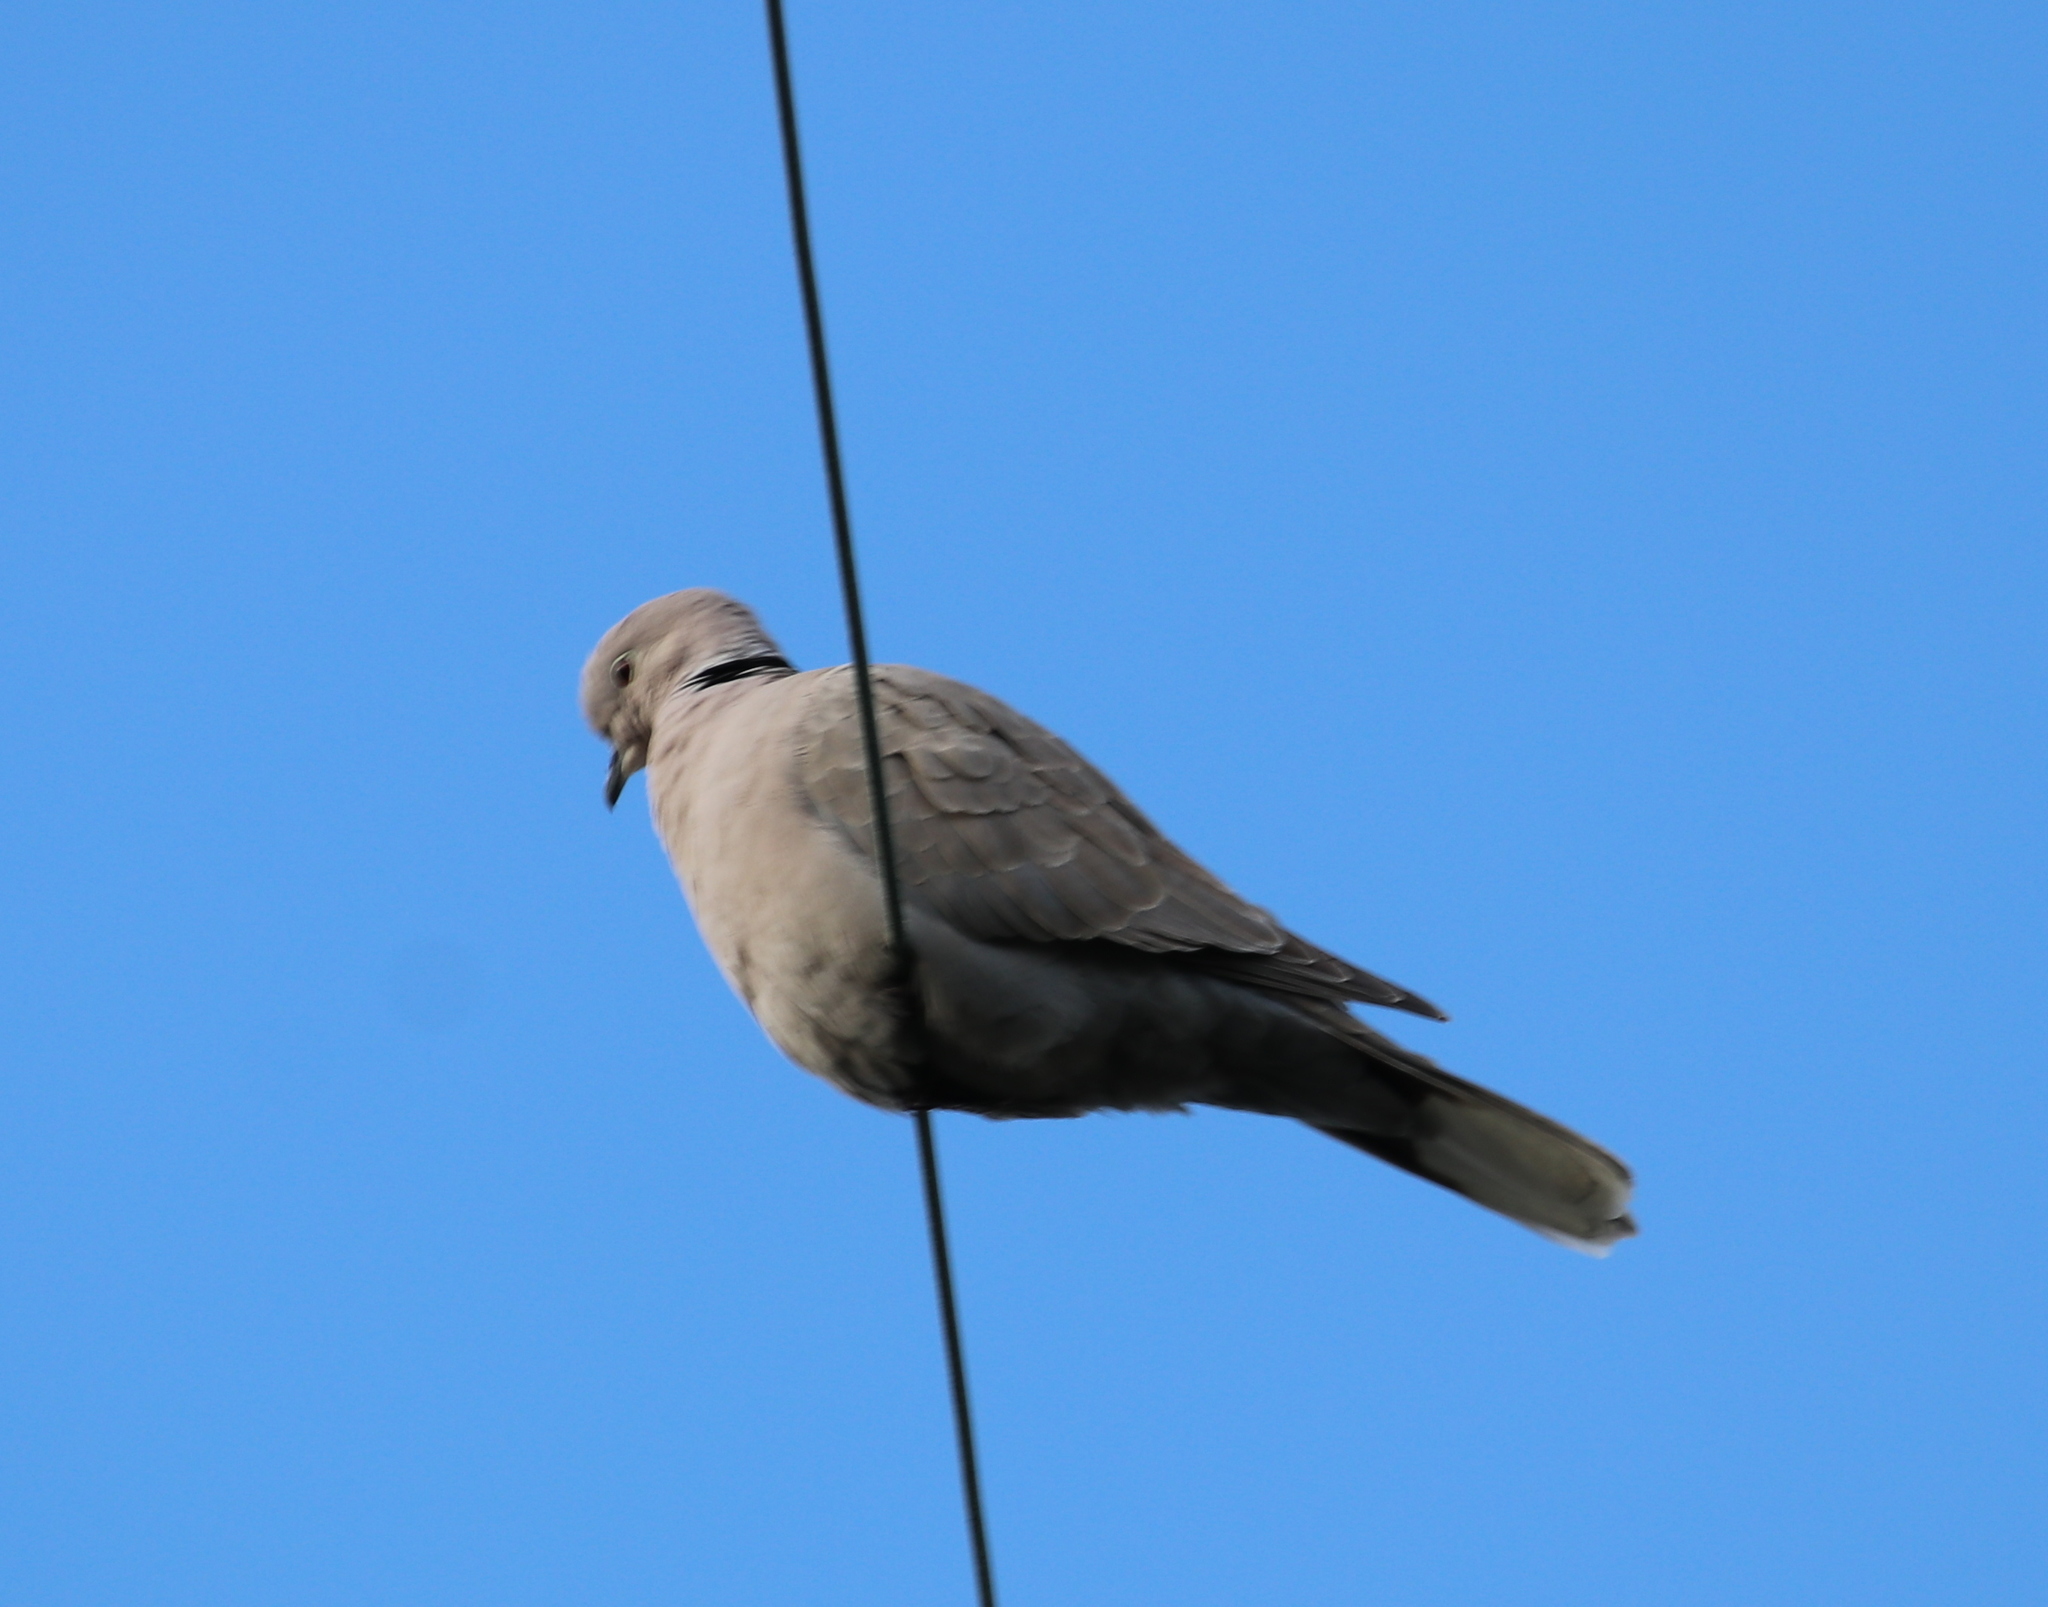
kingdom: Animalia
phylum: Chordata
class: Aves
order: Columbiformes
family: Columbidae
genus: Streptopelia
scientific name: Streptopelia decaocto
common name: Eurasian collared dove
